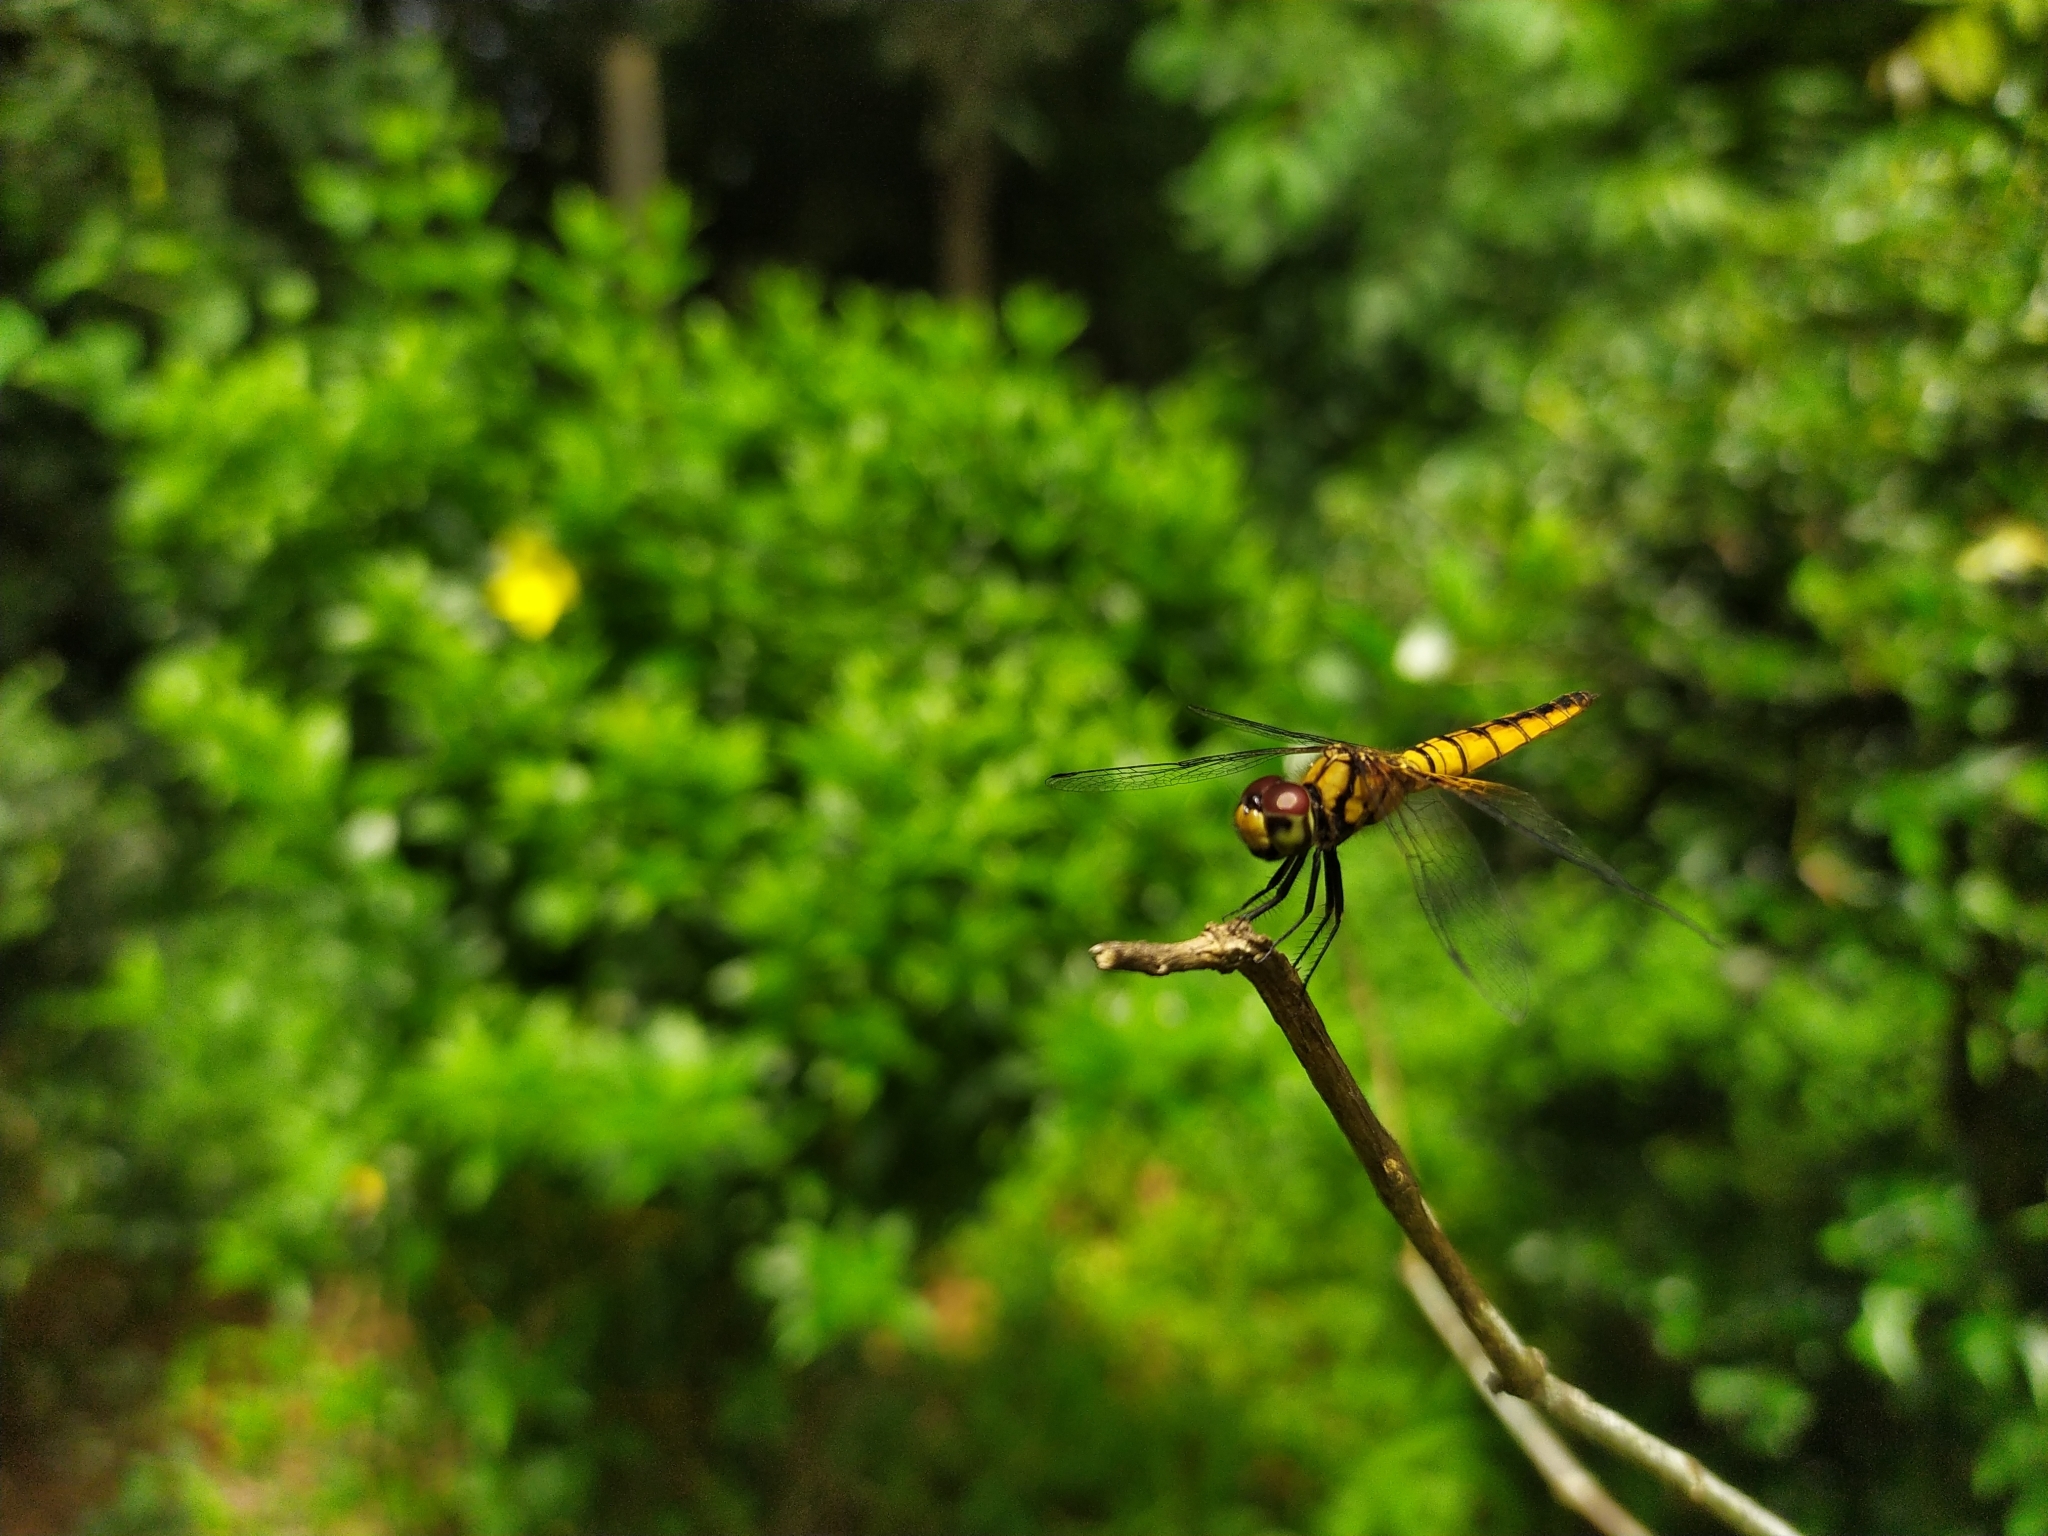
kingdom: Animalia
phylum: Arthropoda
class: Insecta
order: Odonata
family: Libellulidae
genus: Aethriamanta
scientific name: Aethriamanta brevipennis
